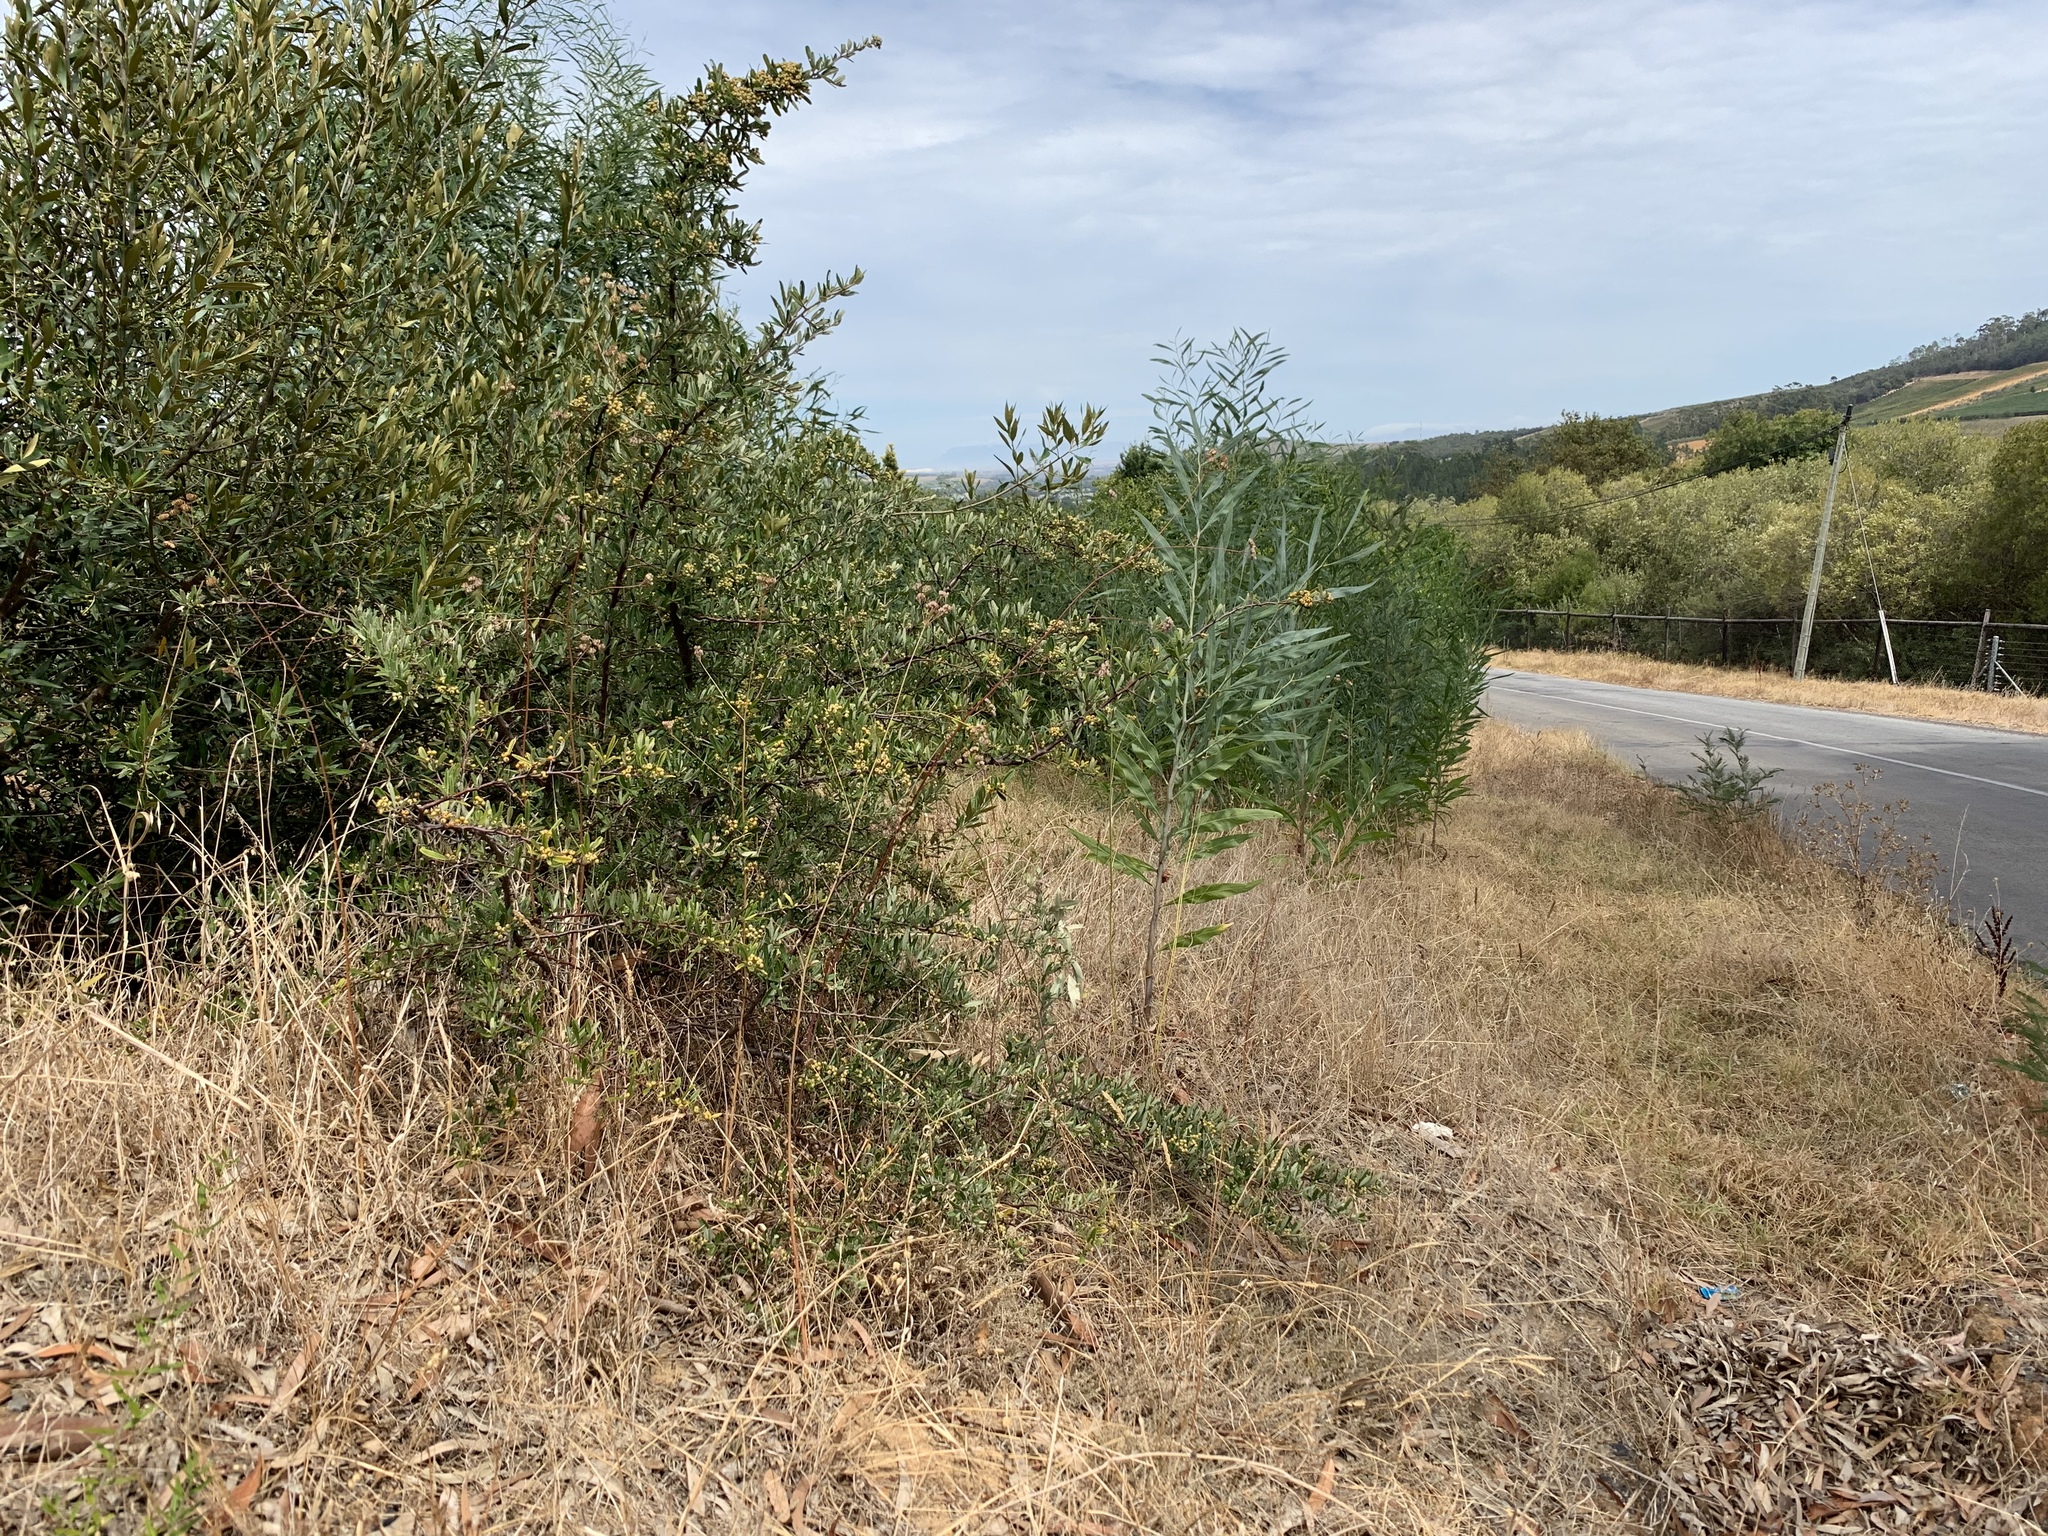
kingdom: Plantae
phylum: Tracheophyta
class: Magnoliopsida
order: Rosales
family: Rosaceae
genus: Pyracantha
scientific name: Pyracantha angustifolia
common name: Narrowleaf firethorn
